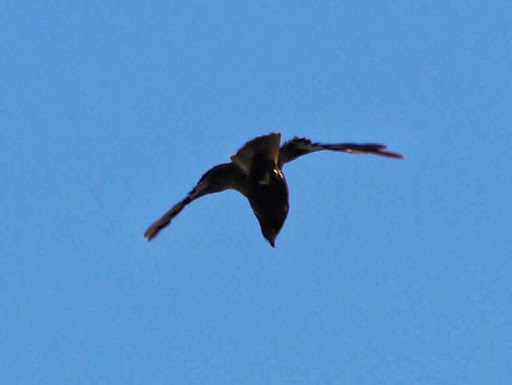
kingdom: Animalia
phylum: Chordata
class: Aves
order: Accipitriformes
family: Accipitridae
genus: Circus
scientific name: Circus aeruginosus
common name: Western marsh harrier
